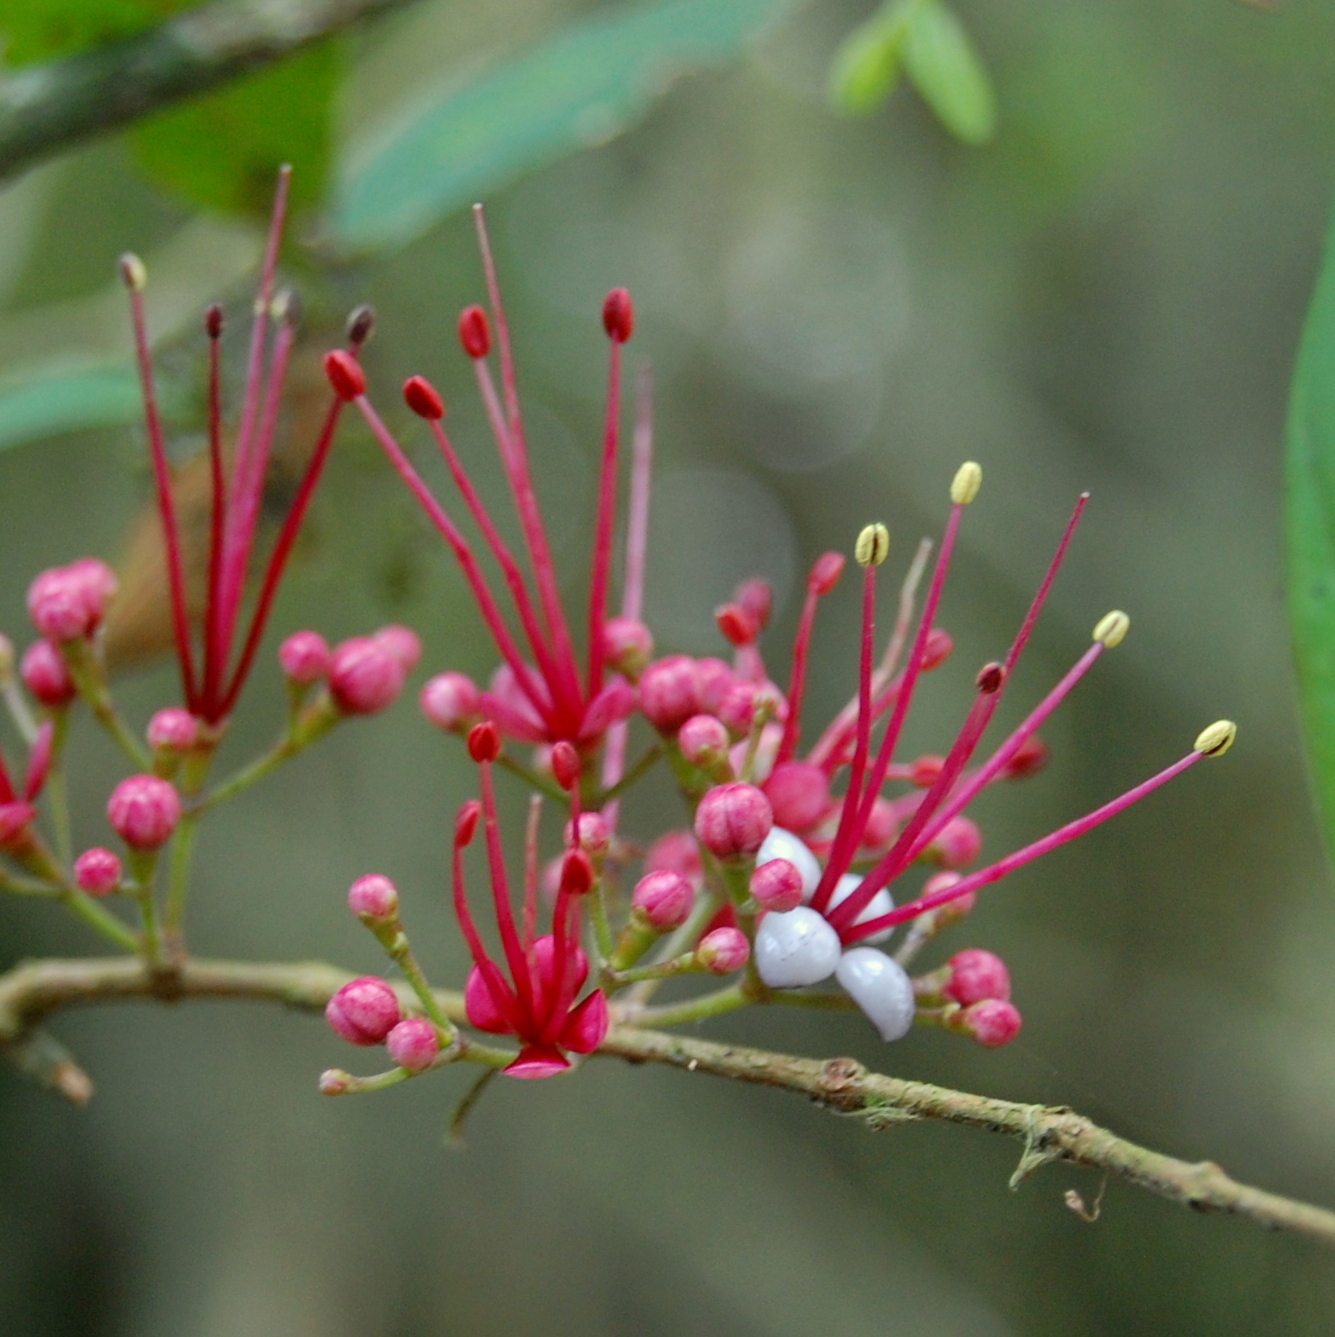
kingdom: Plantae
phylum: Tracheophyta
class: Magnoliopsida
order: Myrtales
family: Myrtaceae
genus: Myrrhinium
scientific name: Myrrhinium atropurpureum
